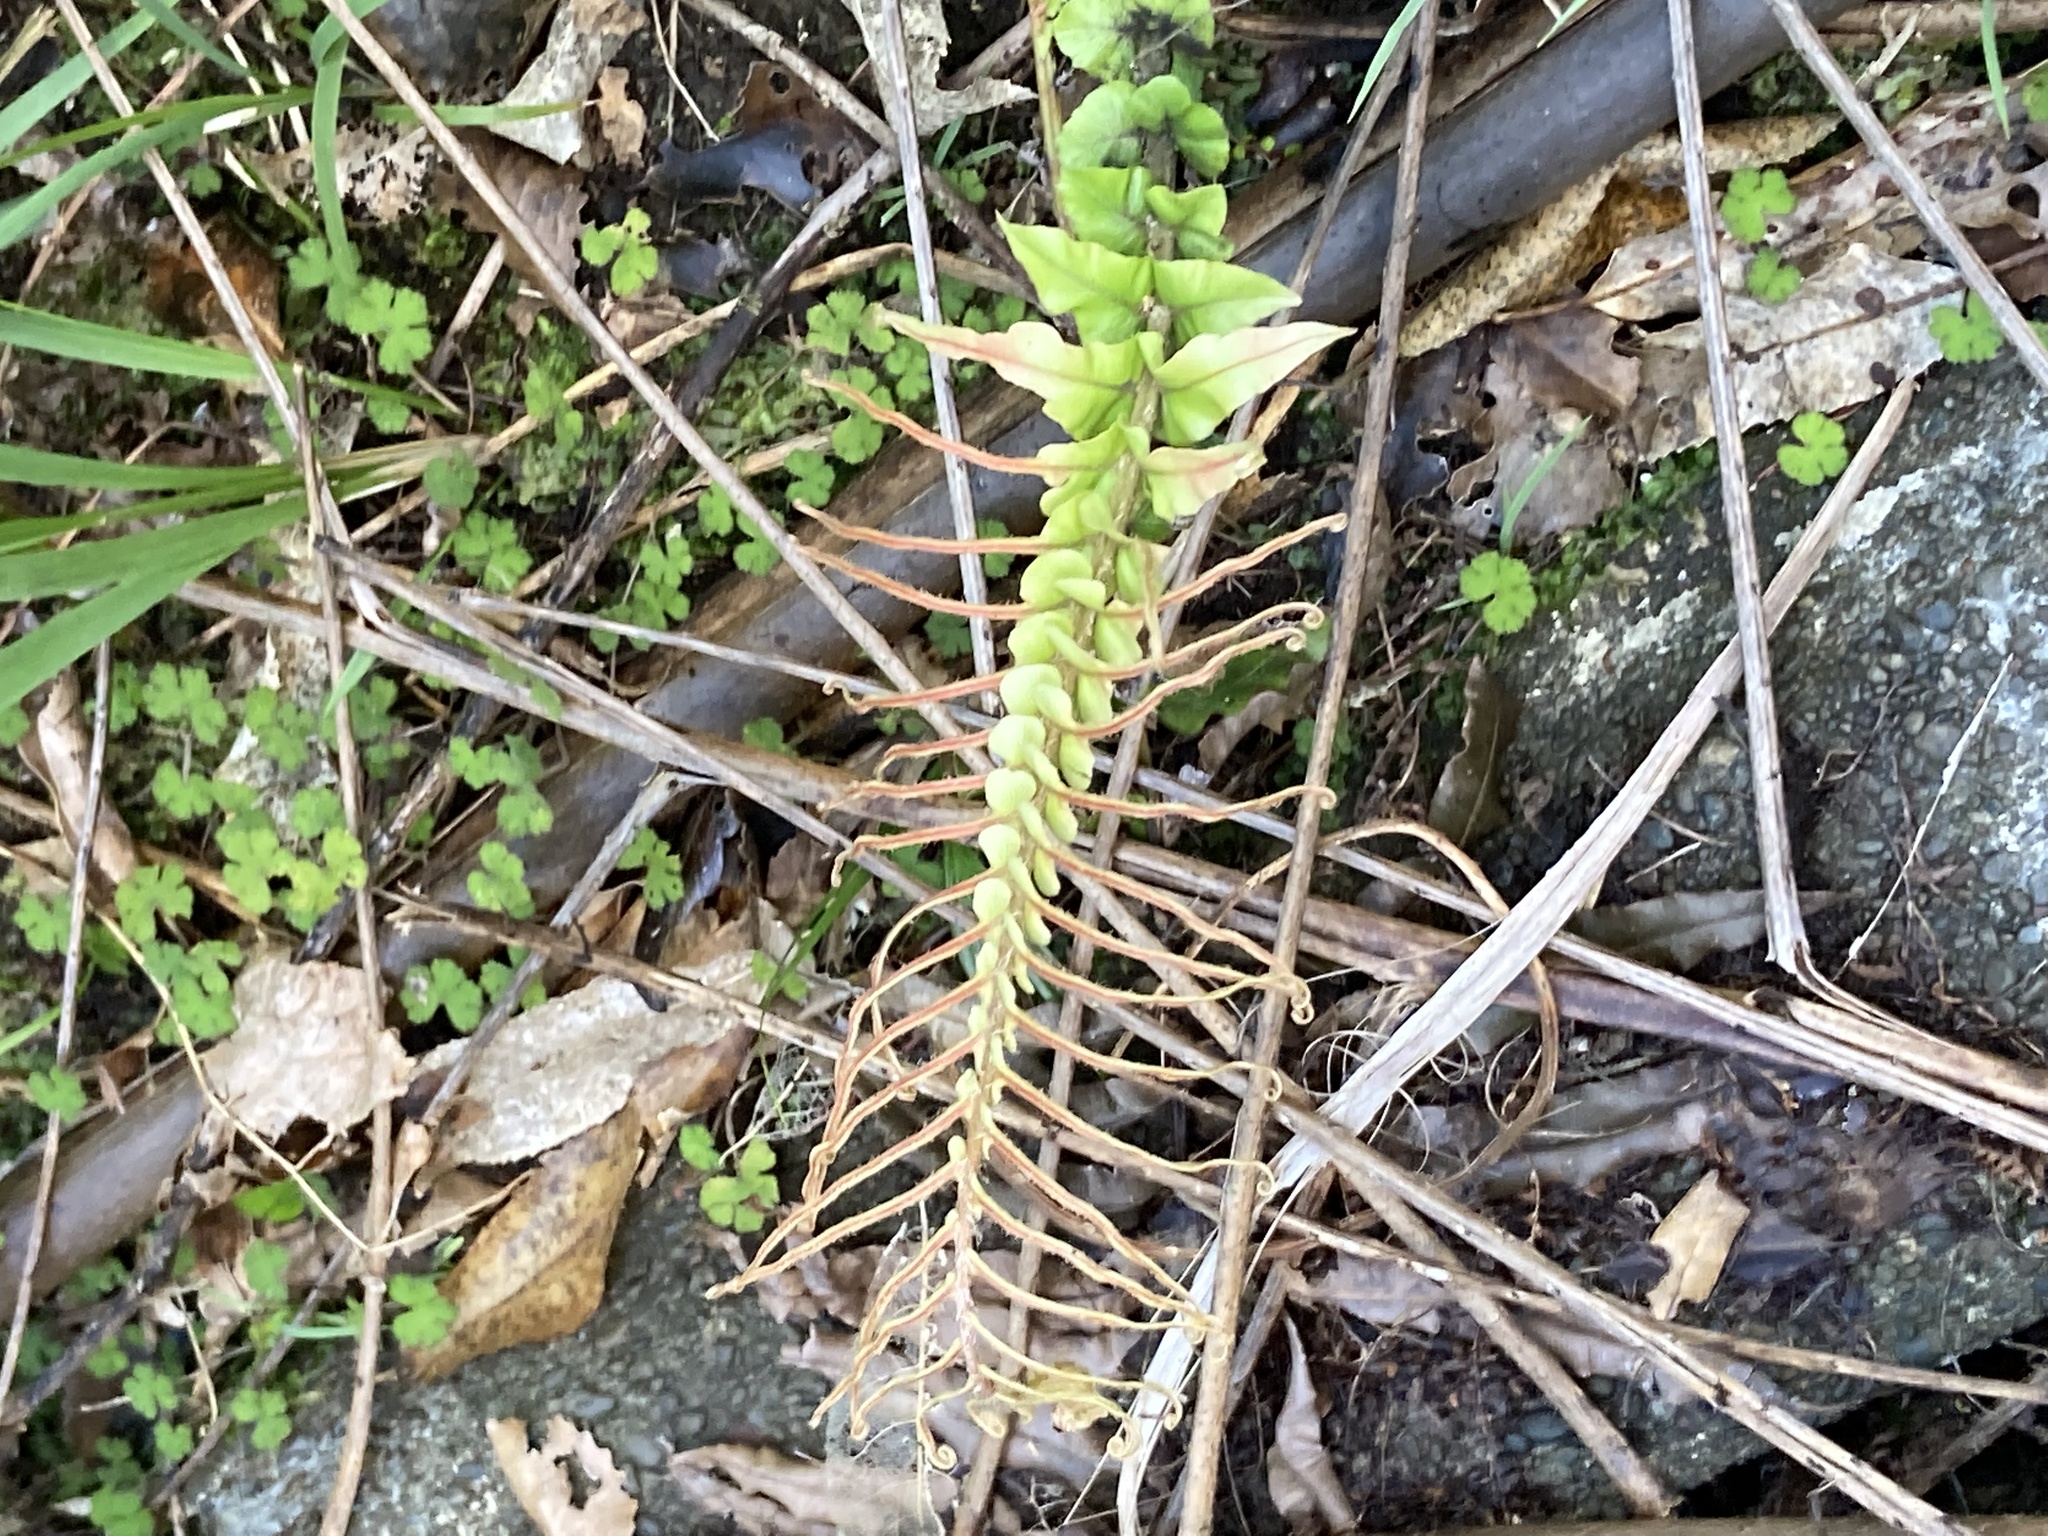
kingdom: Plantae
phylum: Tracheophyta
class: Polypodiopsida
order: Polypodiales
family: Blechnaceae
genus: Parablechnum
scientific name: Parablechnum novae-zelandiae
